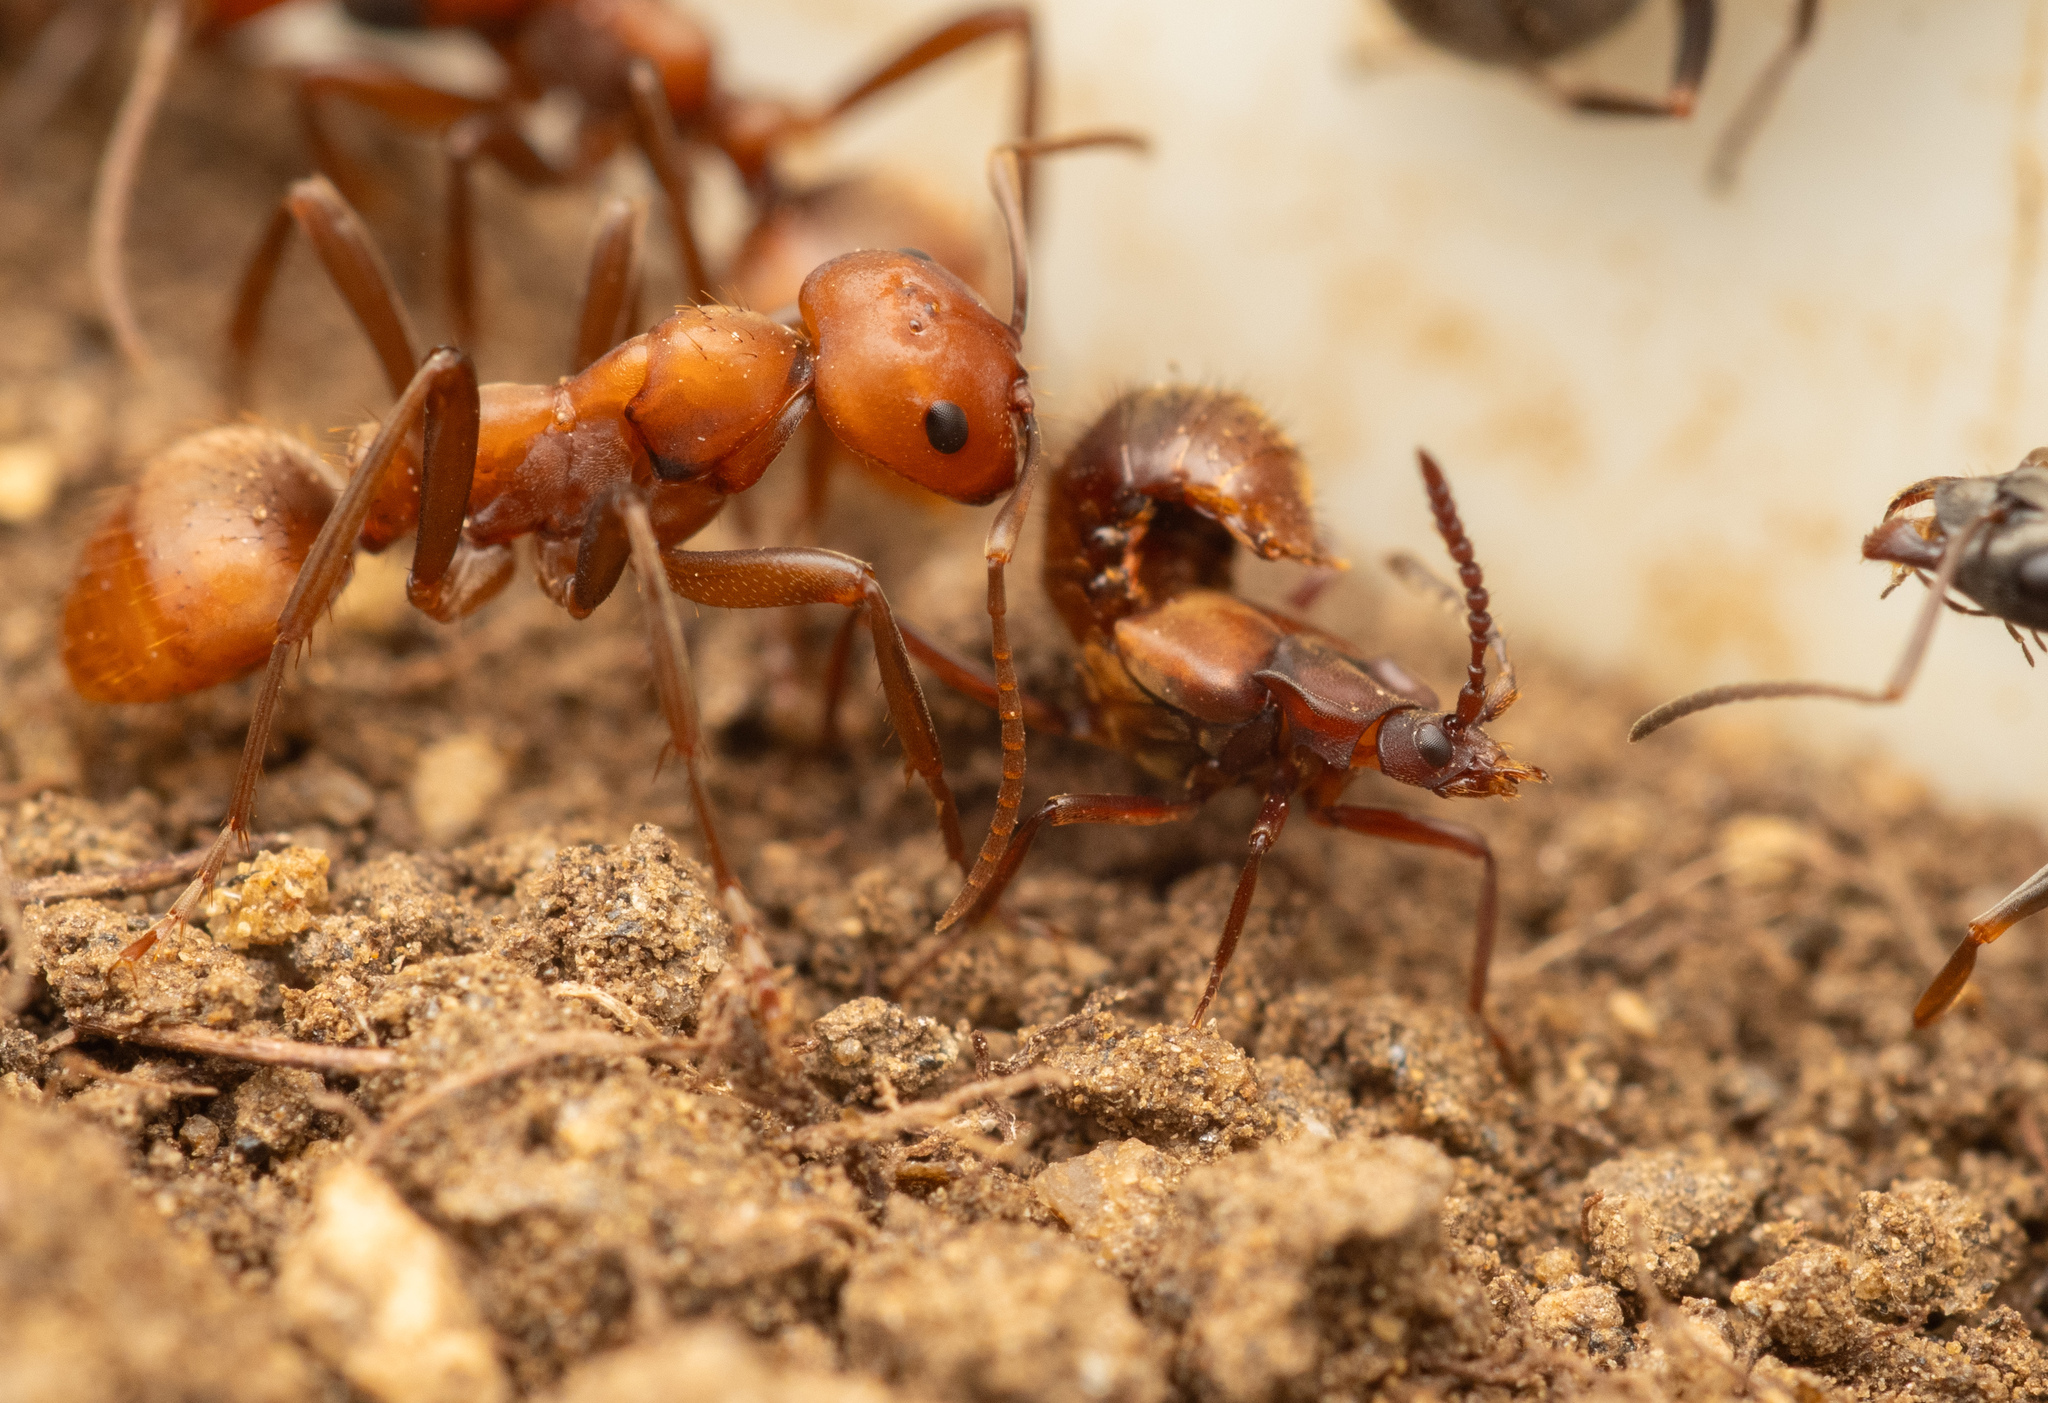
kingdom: Animalia
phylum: Arthropoda
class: Insecta
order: Coleoptera
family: Staphylinidae
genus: Lomechusa
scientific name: Lomechusa paradoxa
